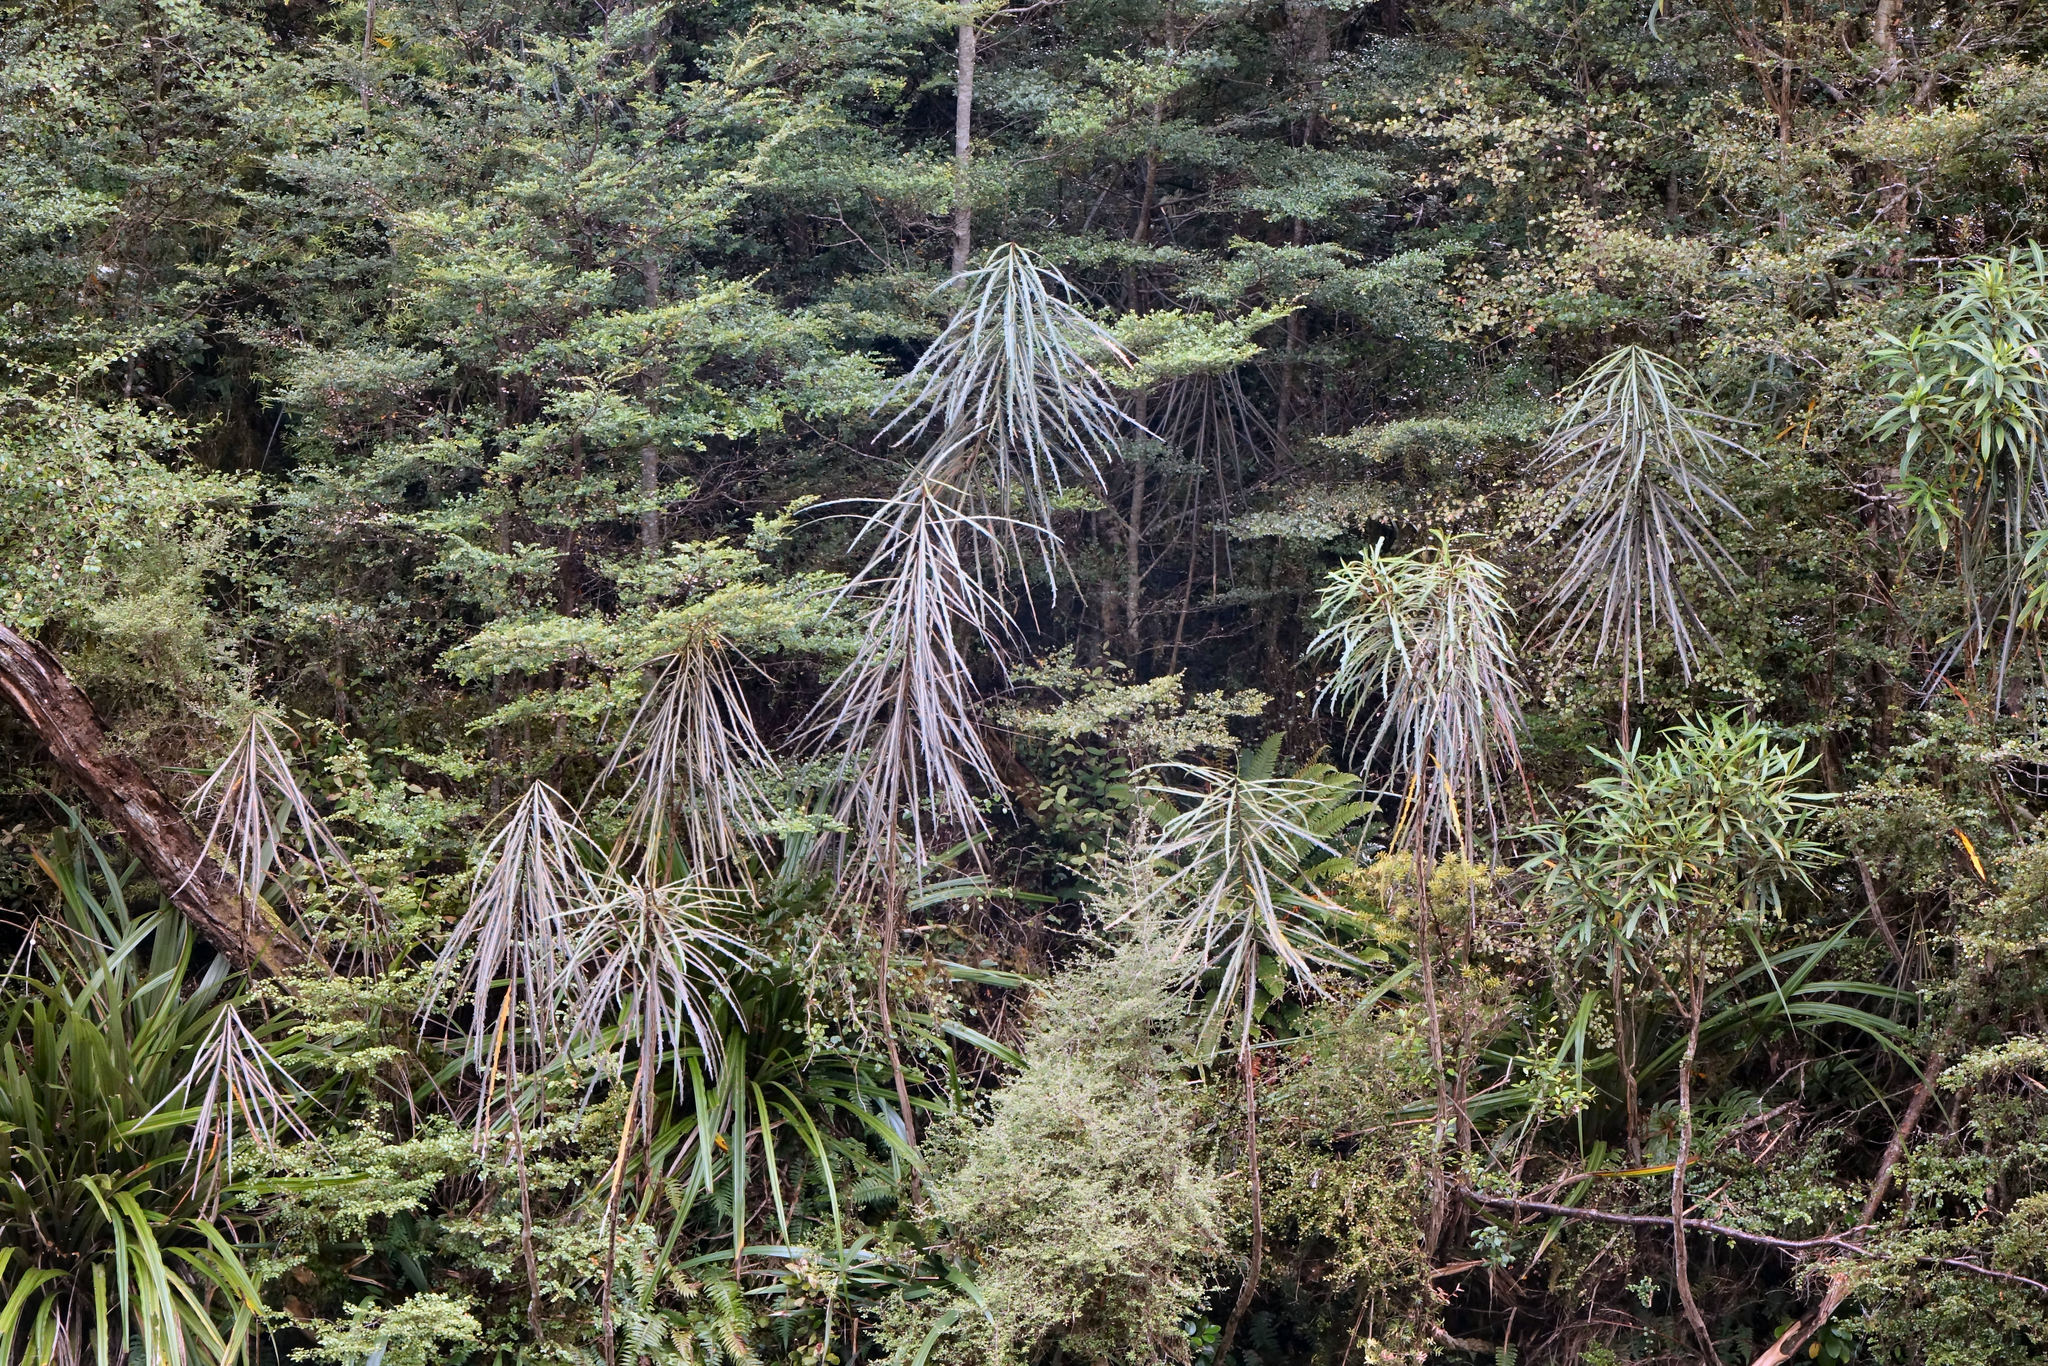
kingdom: Plantae
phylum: Tracheophyta
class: Magnoliopsida
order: Apiales
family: Araliaceae
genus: Pseudopanax
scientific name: Pseudopanax crassifolius
